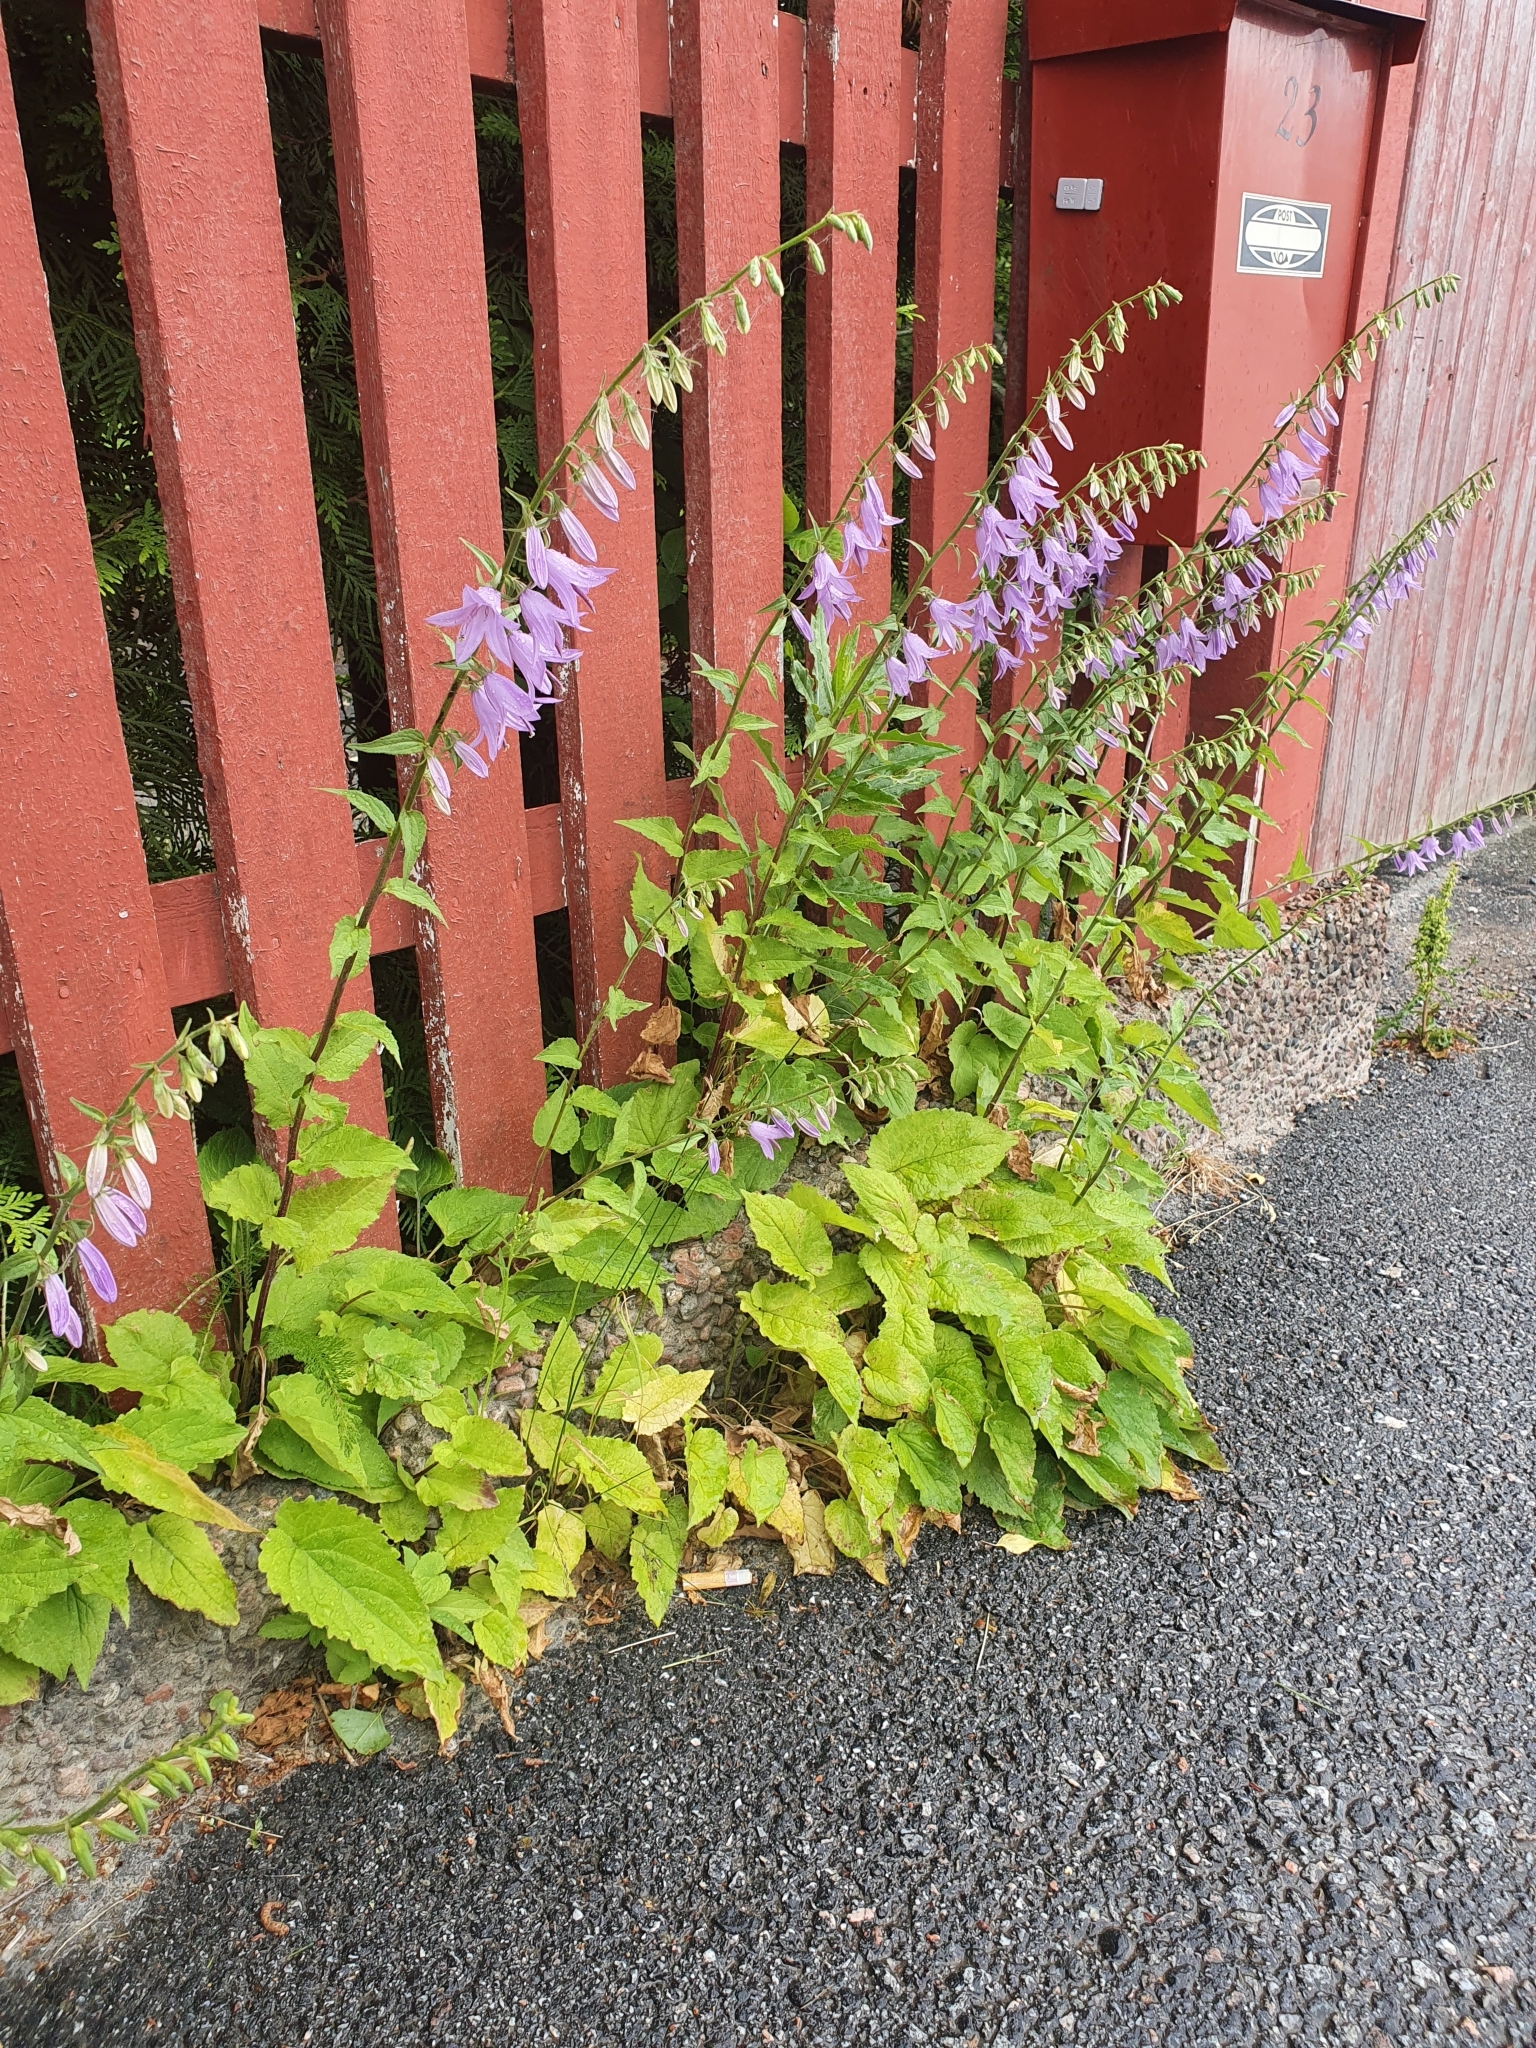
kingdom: Plantae
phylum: Tracheophyta
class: Magnoliopsida
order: Asterales
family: Campanulaceae
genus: Campanula
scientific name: Campanula rapunculoides
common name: Creeping bellflower
